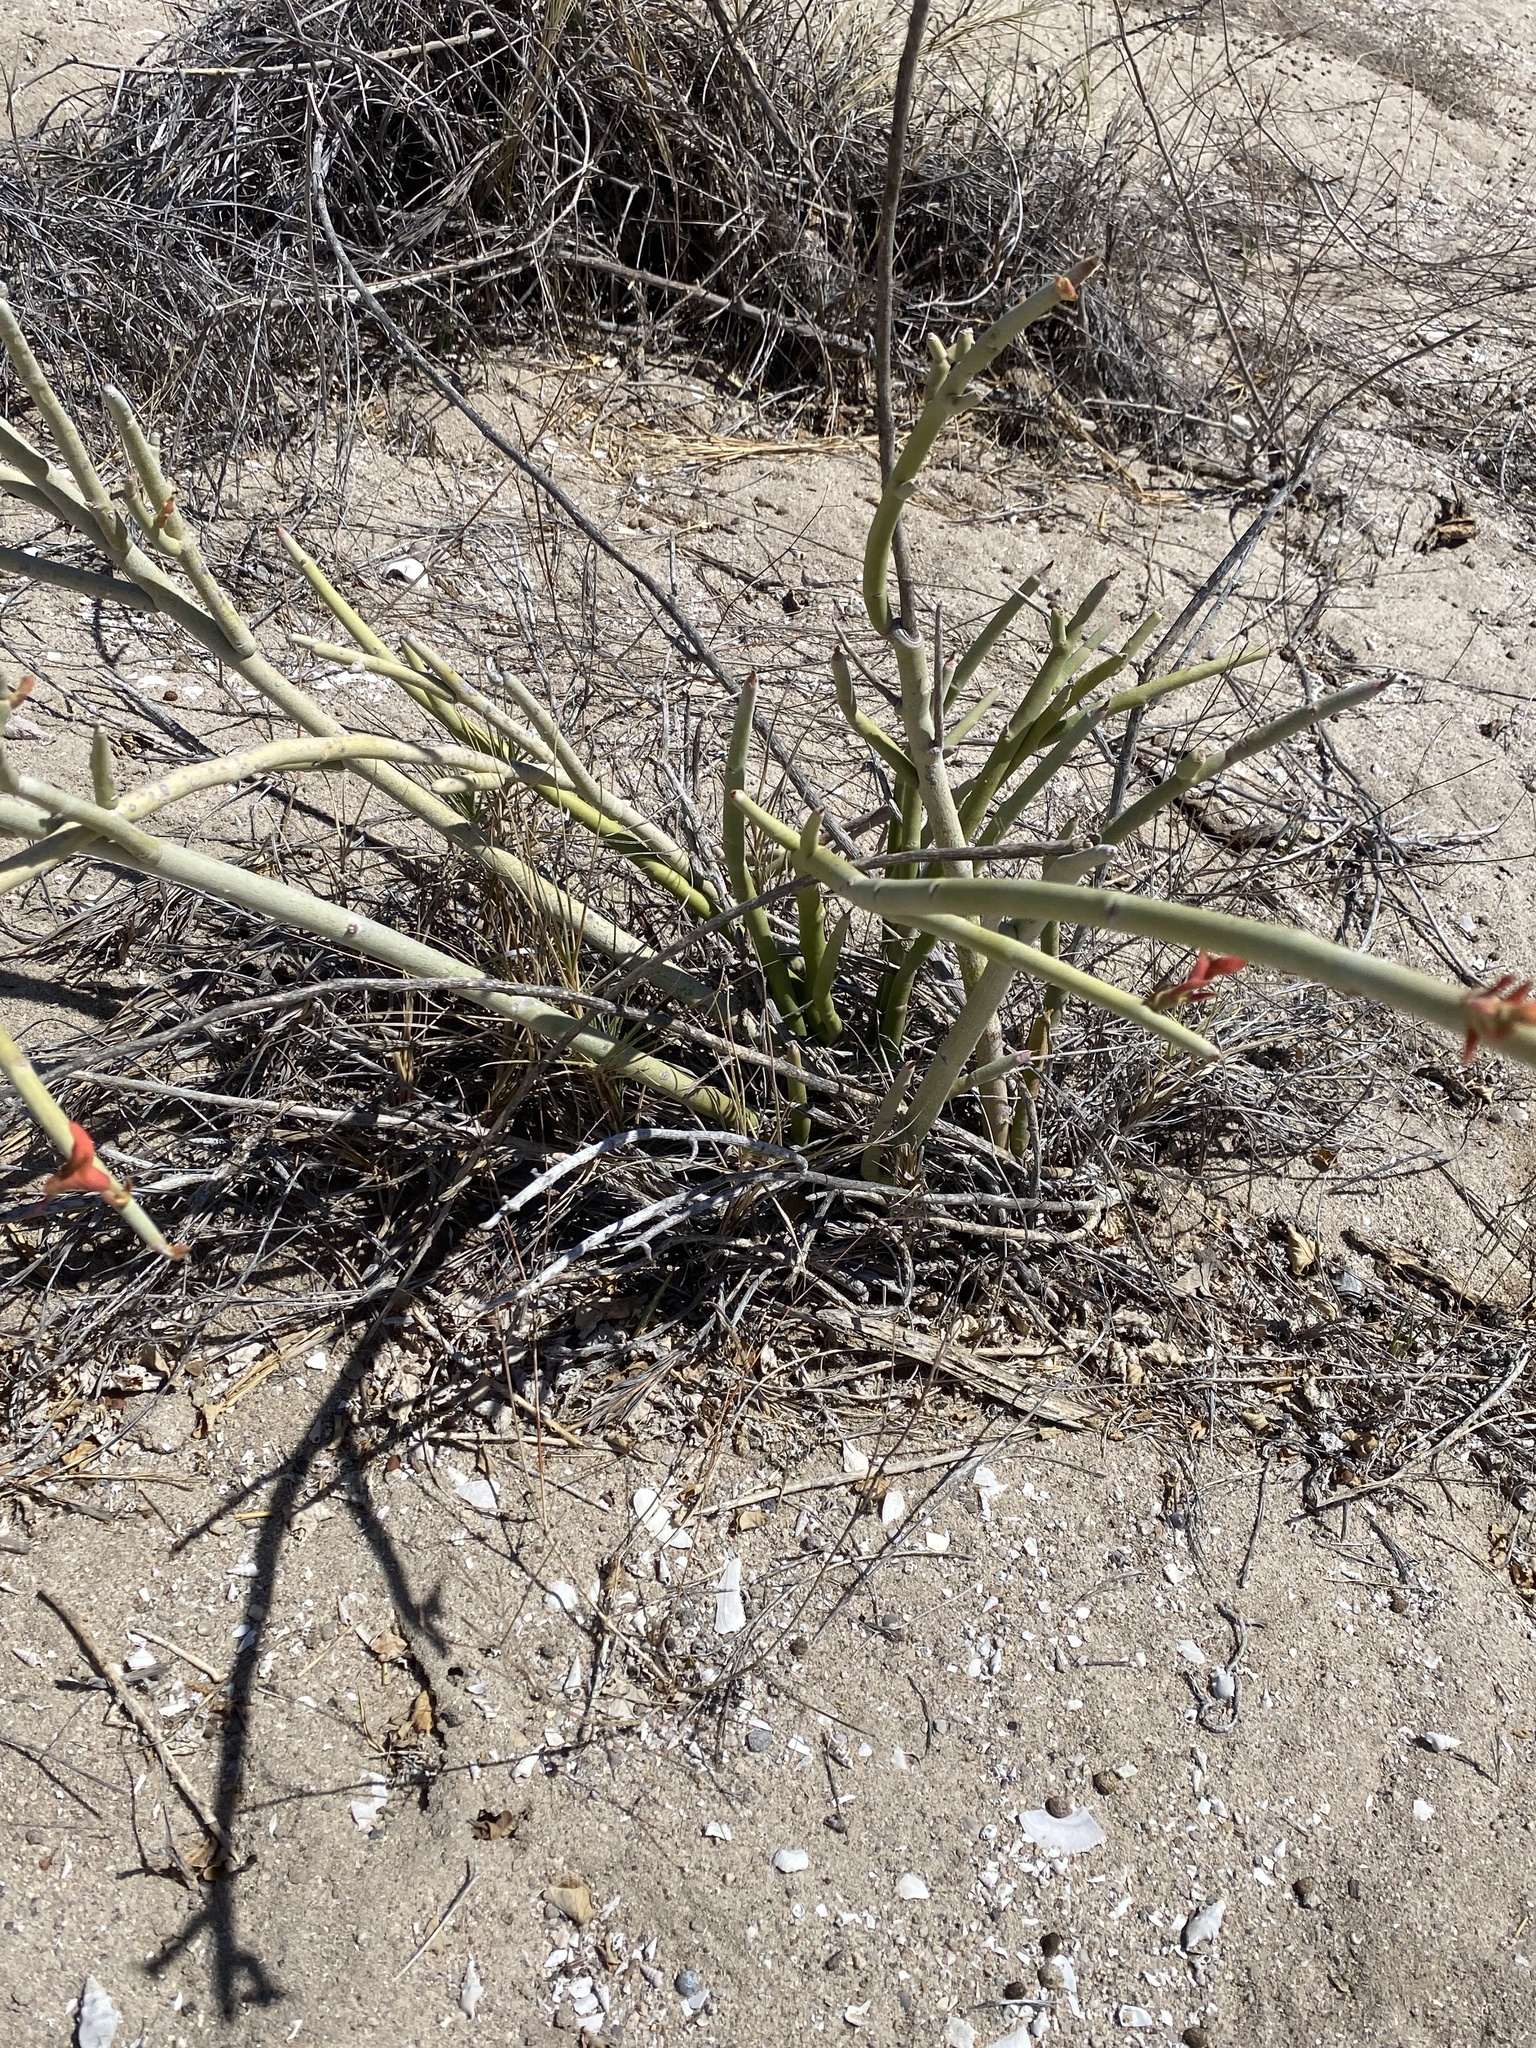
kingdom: Plantae
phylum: Tracheophyta
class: Magnoliopsida
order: Malpighiales
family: Euphorbiaceae
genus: Euphorbia
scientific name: Euphorbia lomelii
